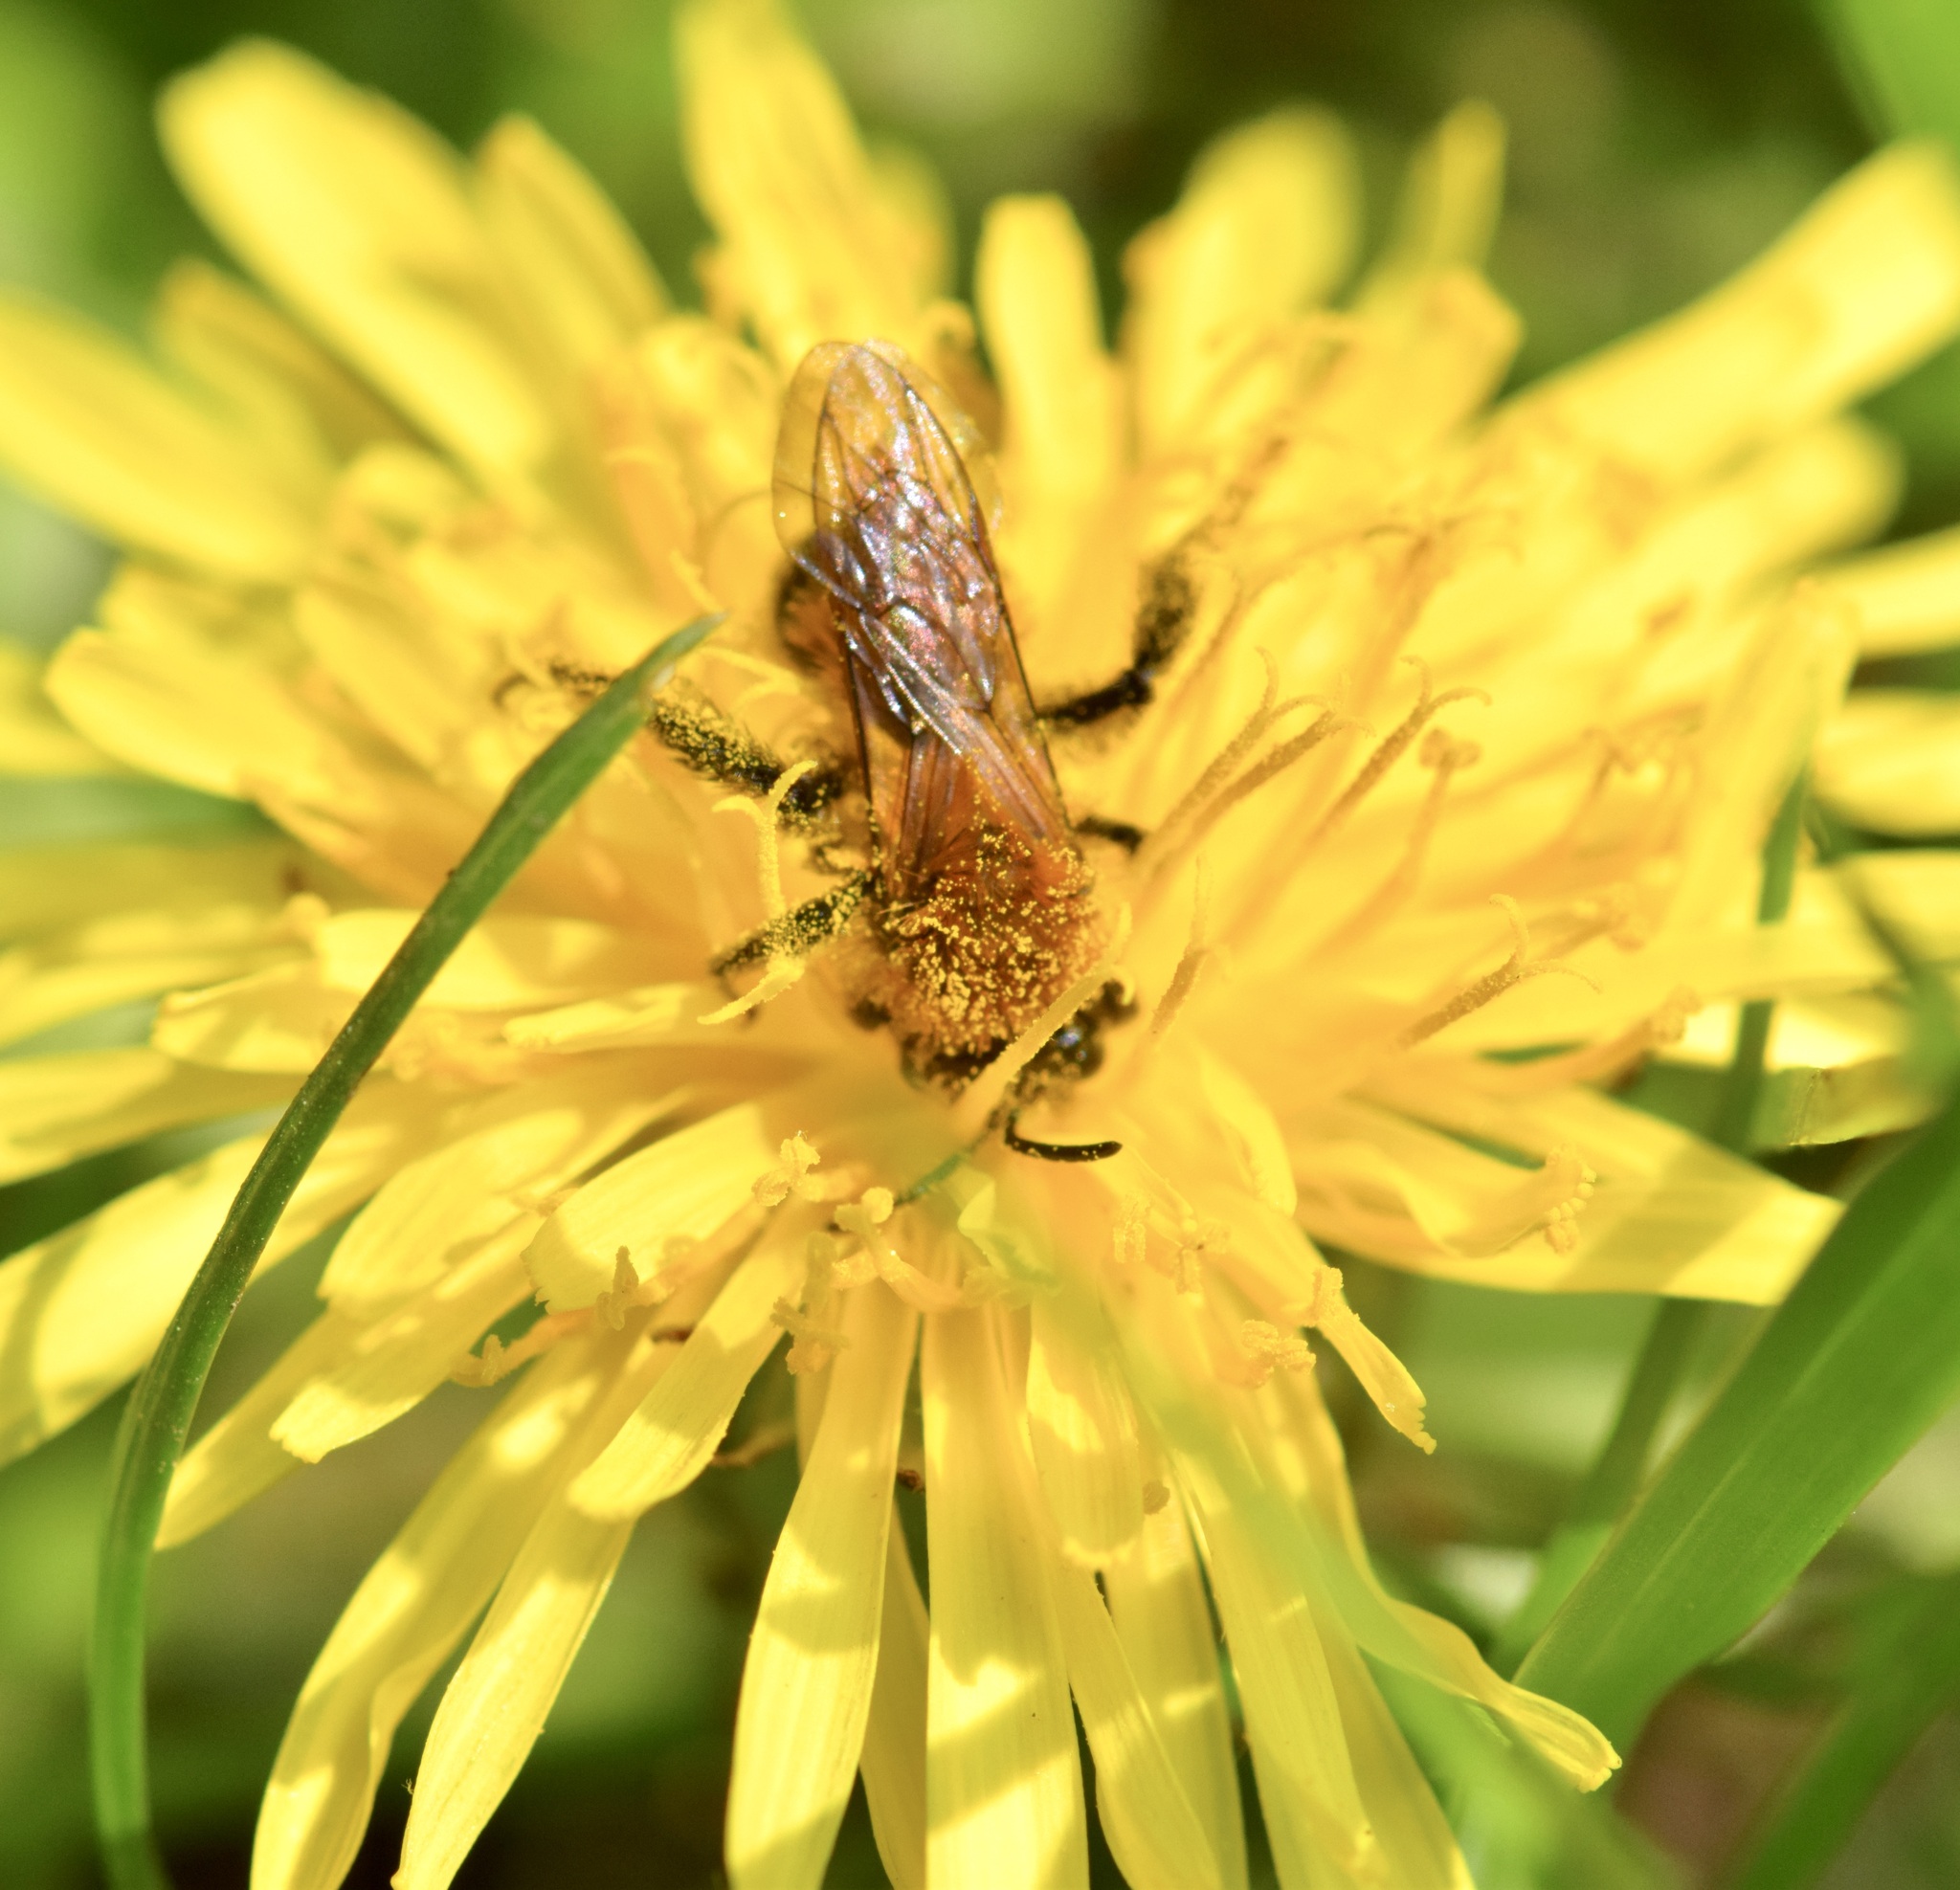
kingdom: Animalia
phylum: Arthropoda
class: Insecta
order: Hymenoptera
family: Andrenidae
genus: Andrena
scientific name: Andrena milwaukeensis
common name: Milwaukee mining bee
